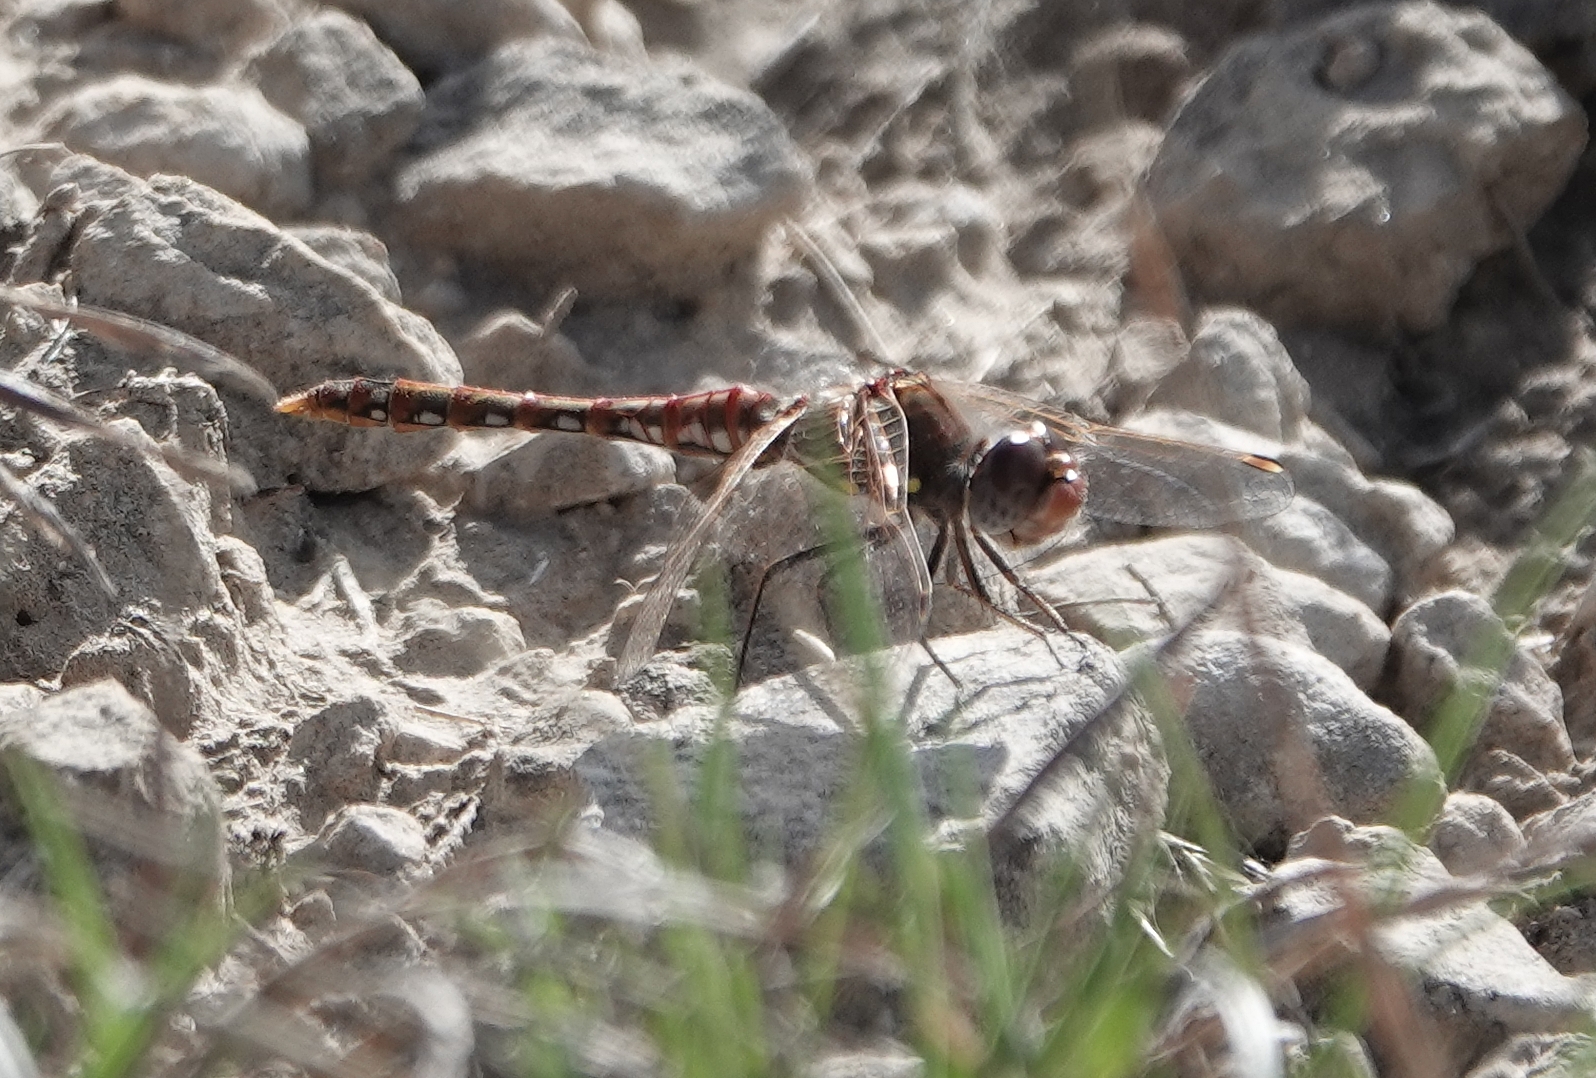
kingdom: Animalia
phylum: Arthropoda
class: Insecta
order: Odonata
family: Libellulidae
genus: Sympetrum
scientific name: Sympetrum corruptum
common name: Variegated meadowhawk
